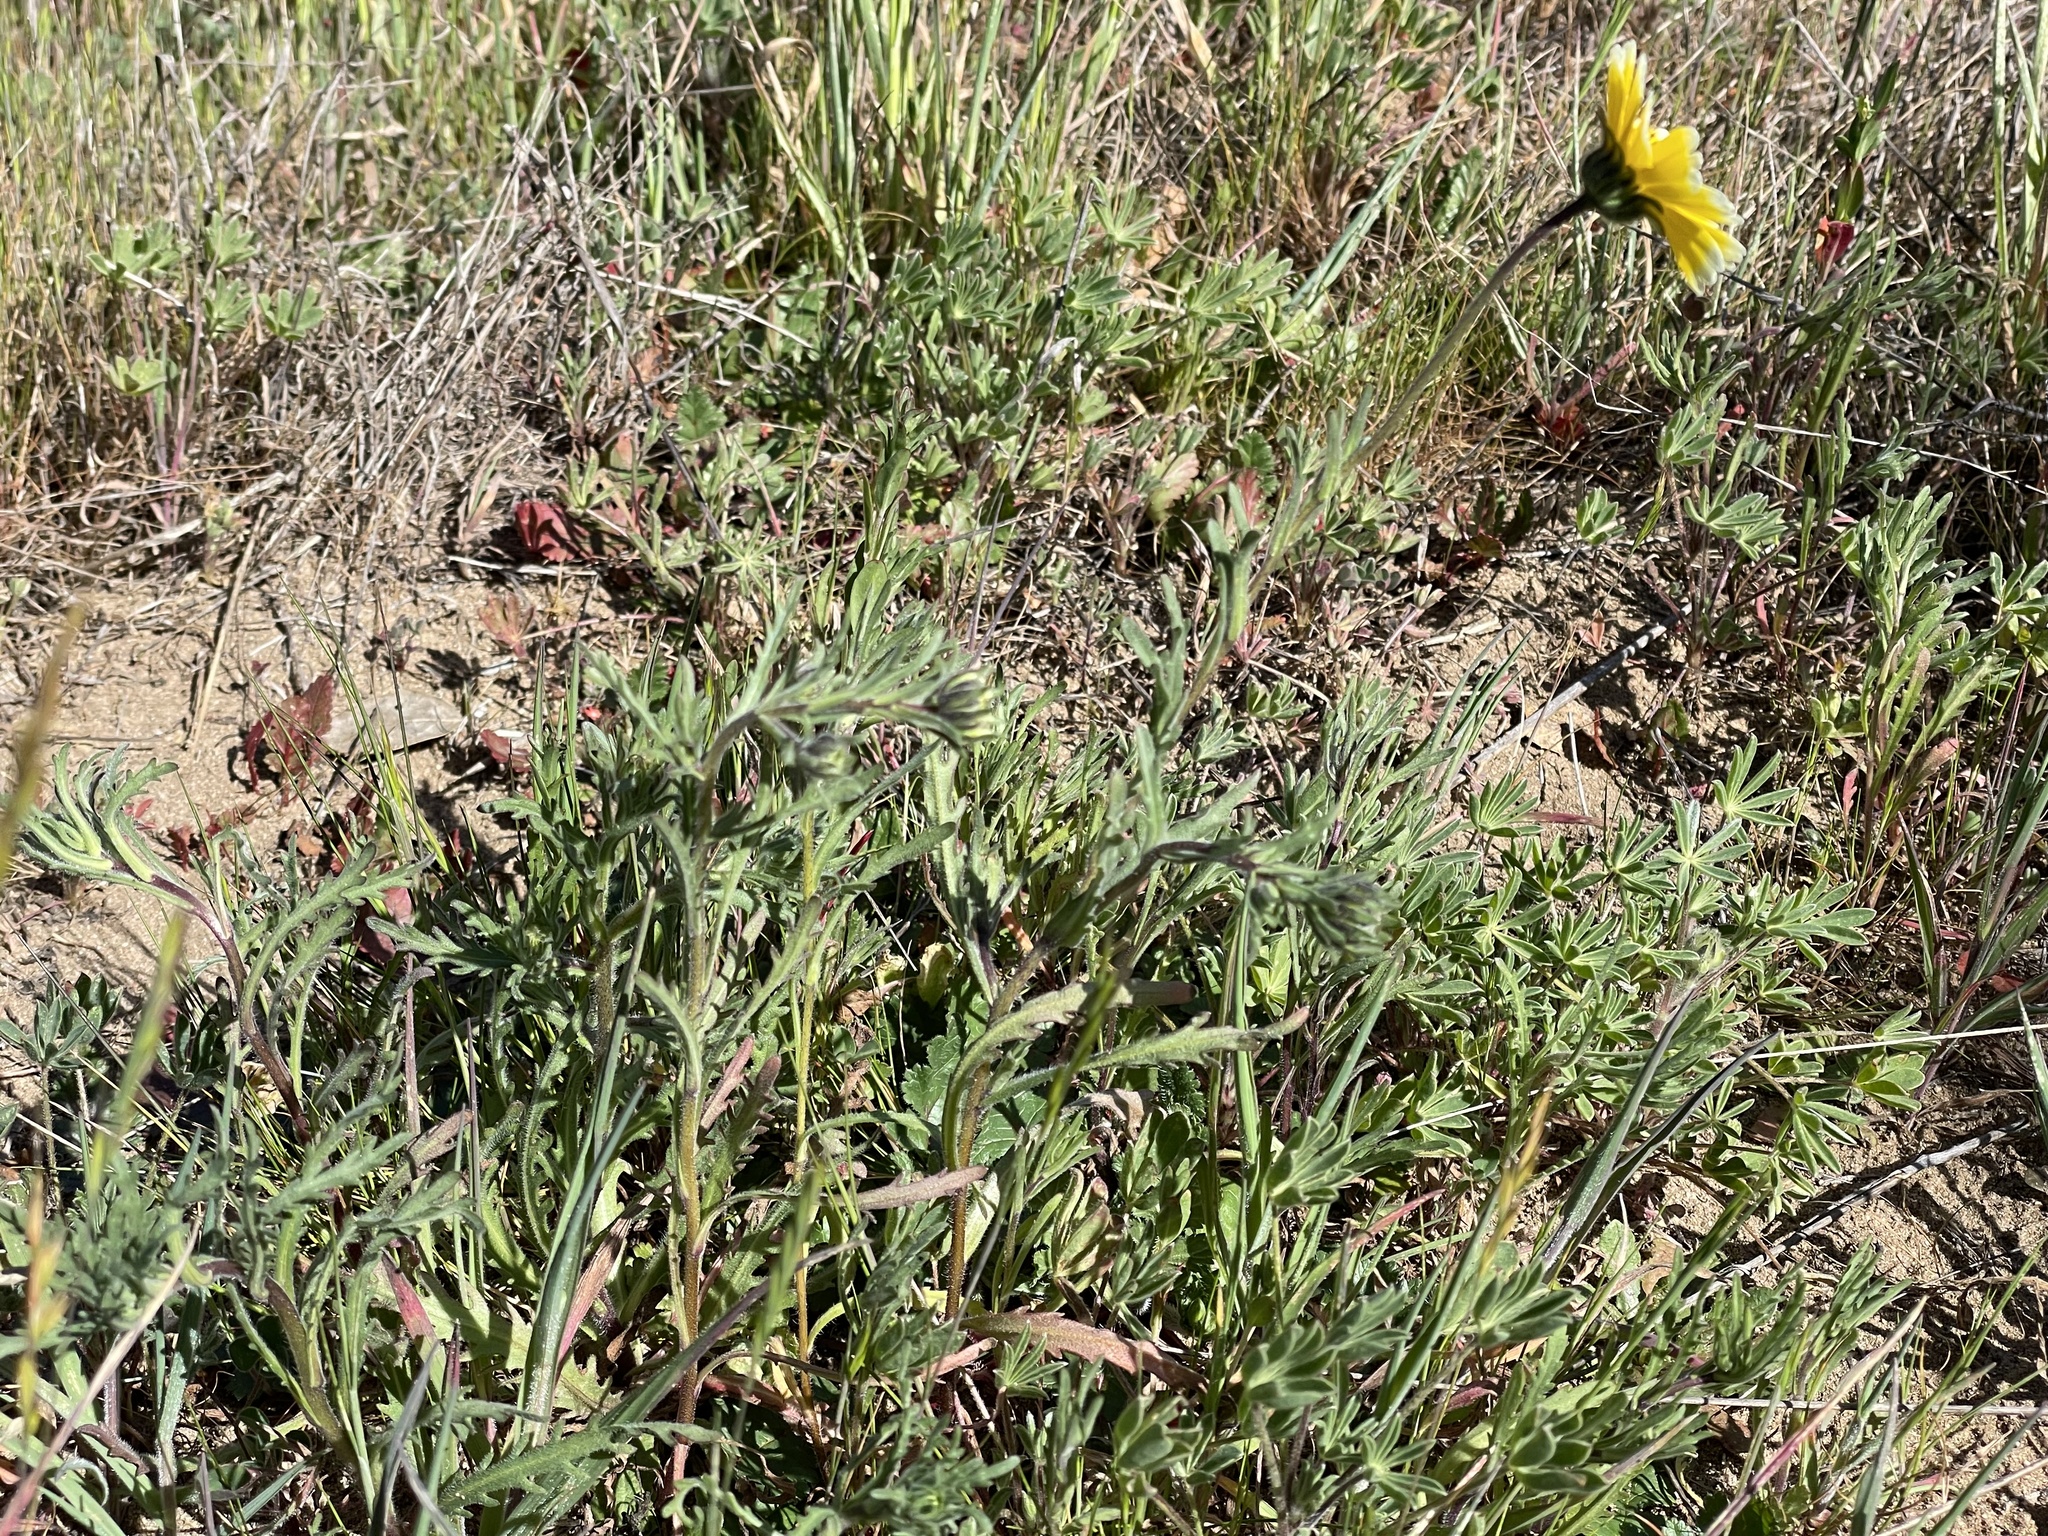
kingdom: Plantae
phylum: Tracheophyta
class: Magnoliopsida
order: Asterales
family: Asteraceae
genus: Layia
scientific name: Layia platyglossa
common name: Tidy-tips
